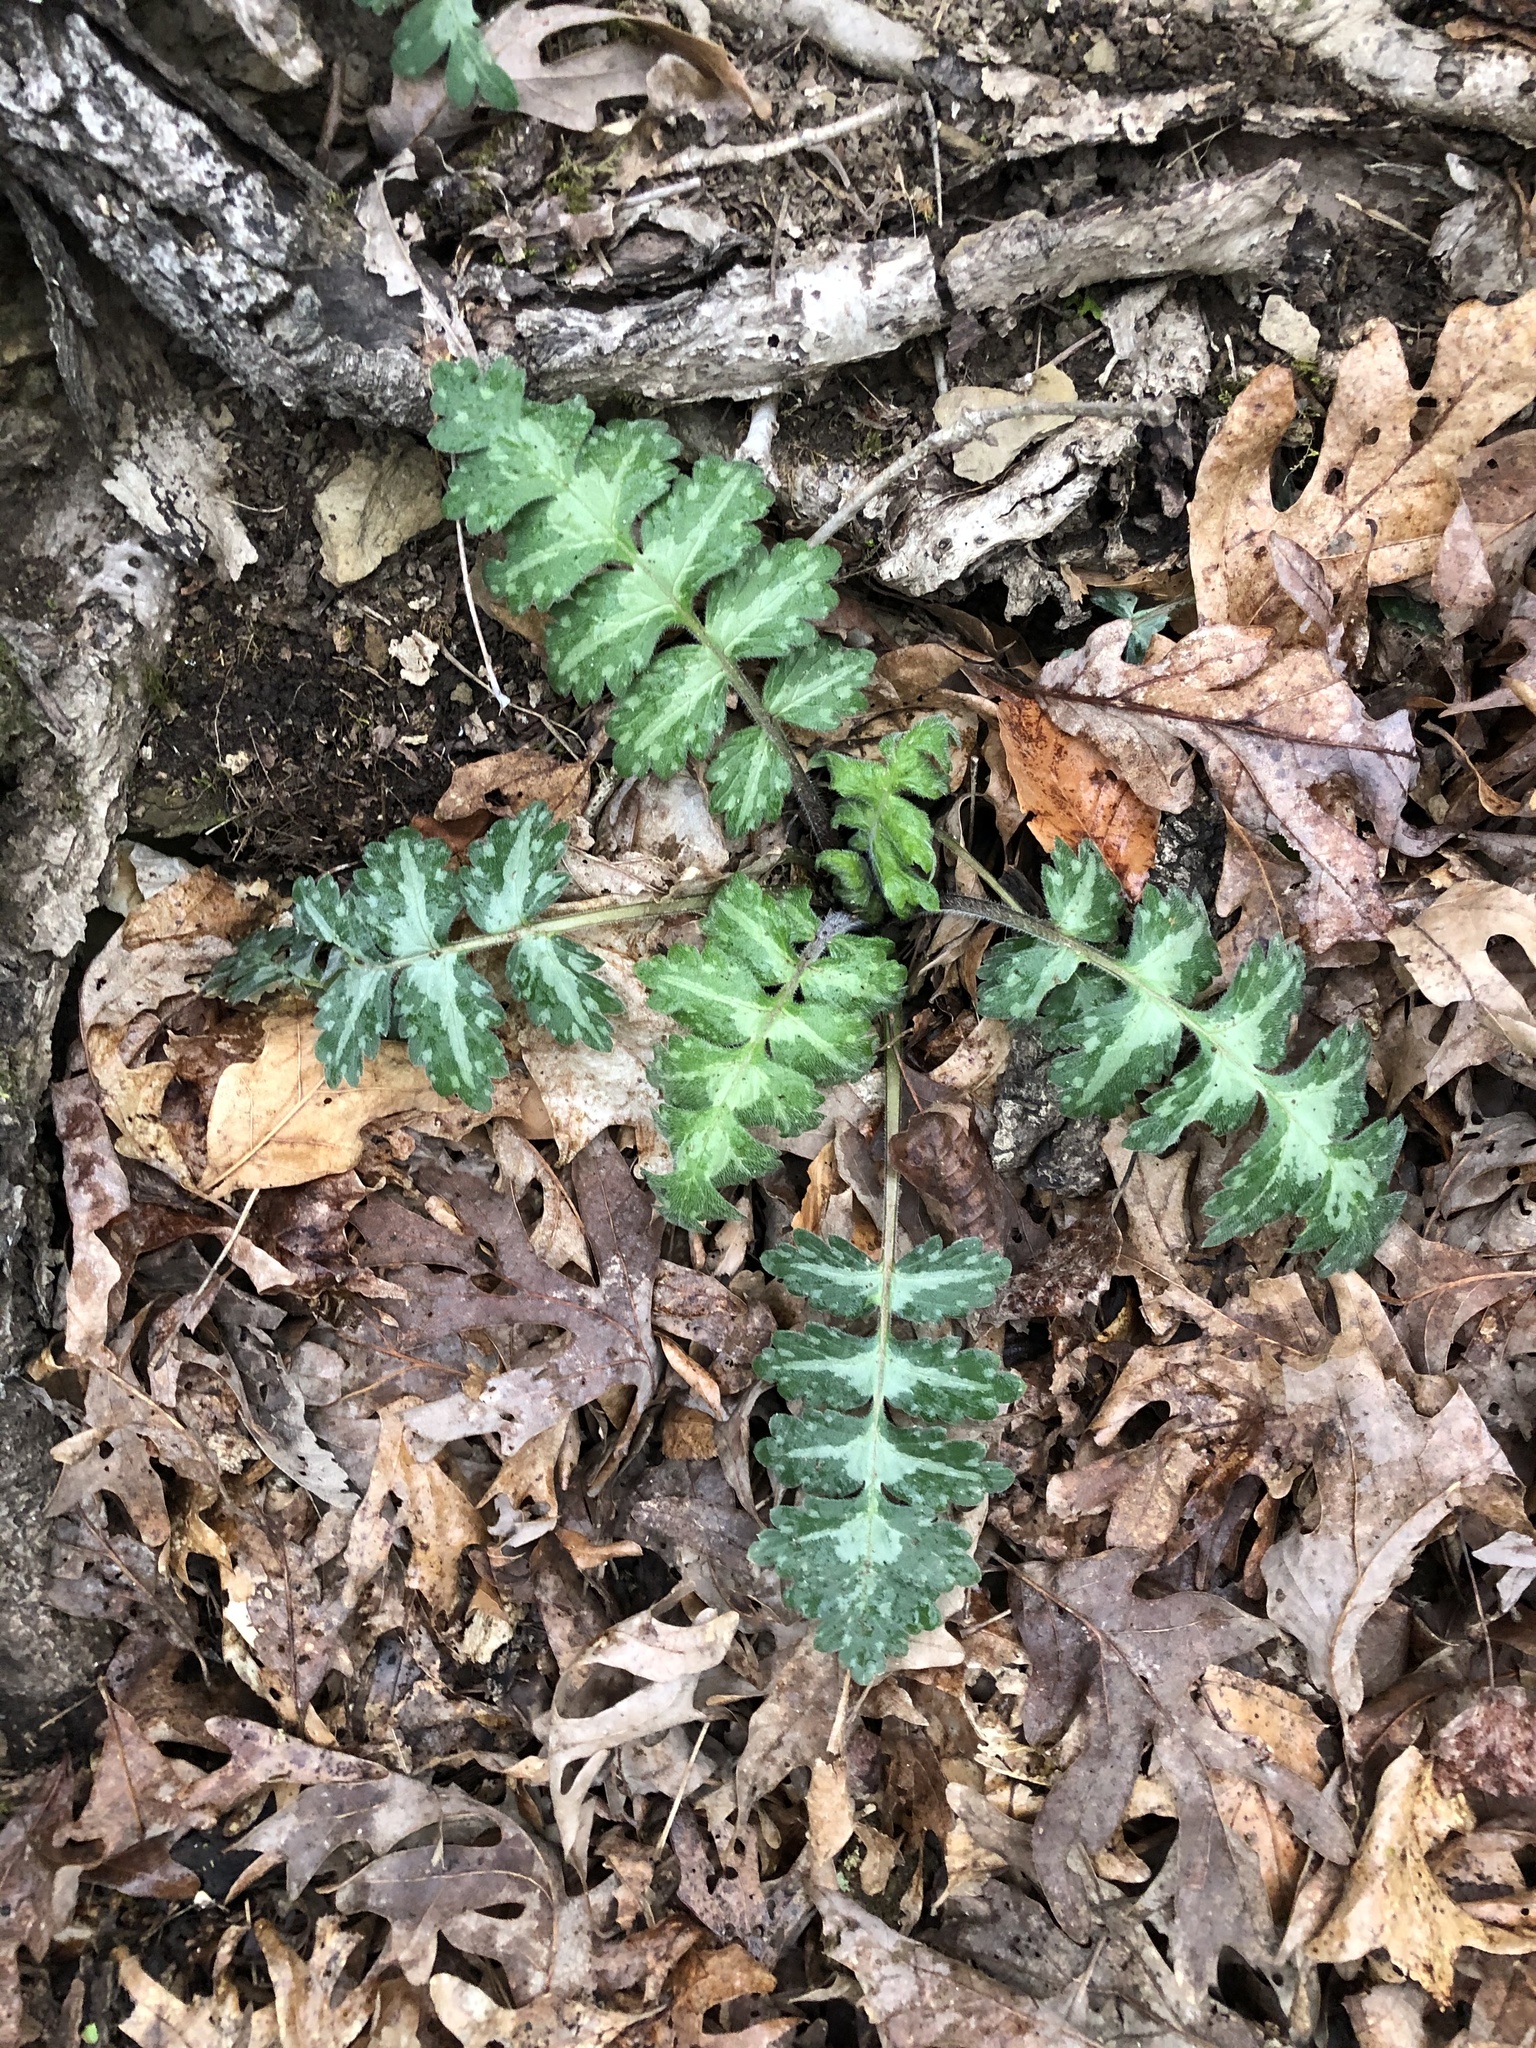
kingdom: Plantae
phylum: Tracheophyta
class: Magnoliopsida
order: Boraginales
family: Hydrophyllaceae
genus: Hydrophyllum
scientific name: Hydrophyllum macrophyllum
